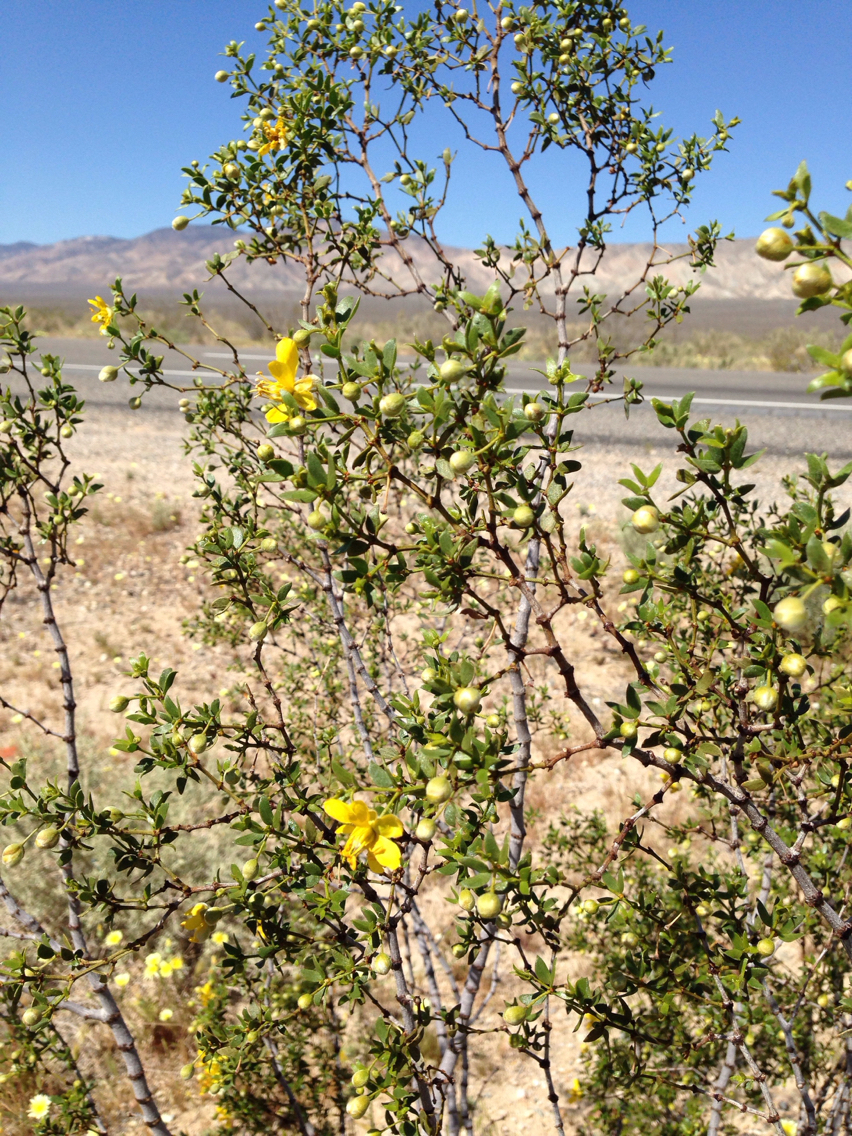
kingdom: Plantae
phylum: Tracheophyta
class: Magnoliopsida
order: Zygophyllales
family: Zygophyllaceae
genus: Larrea
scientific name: Larrea tridentata
